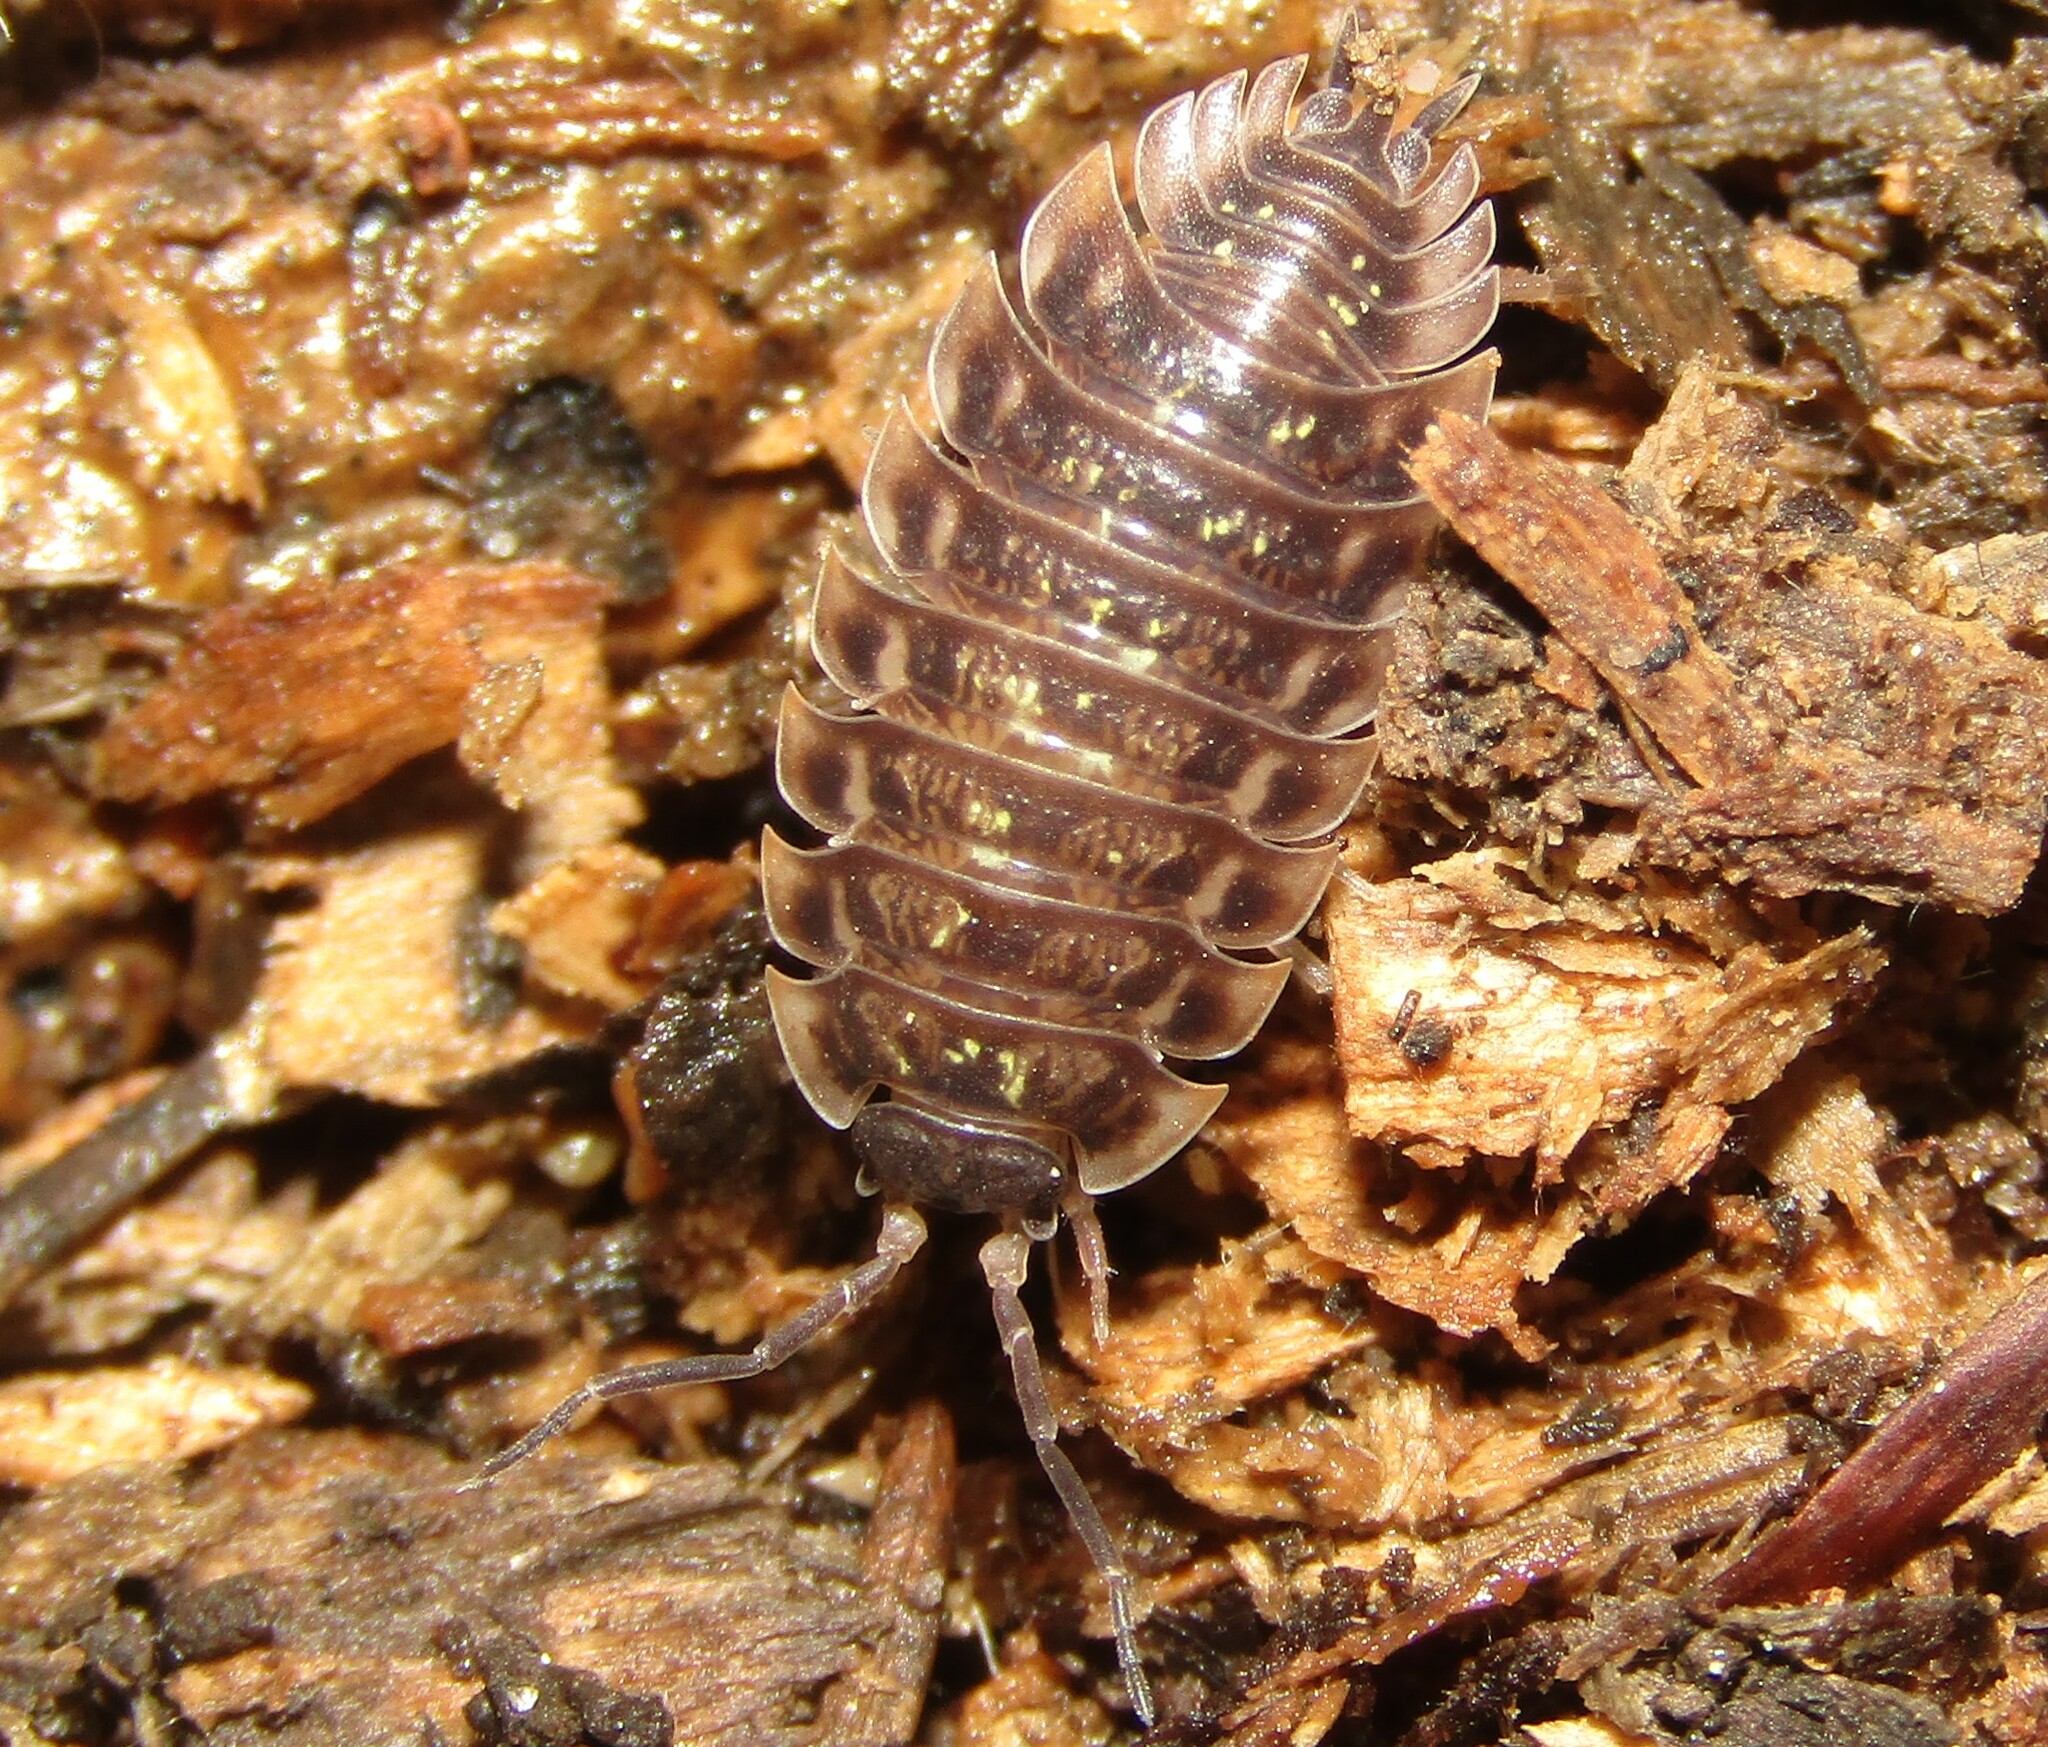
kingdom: Animalia
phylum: Arthropoda
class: Malacostraca
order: Isopoda
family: Oniscidae
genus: Oniscus
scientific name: Oniscus asellus
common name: Common shiny woodlouse
